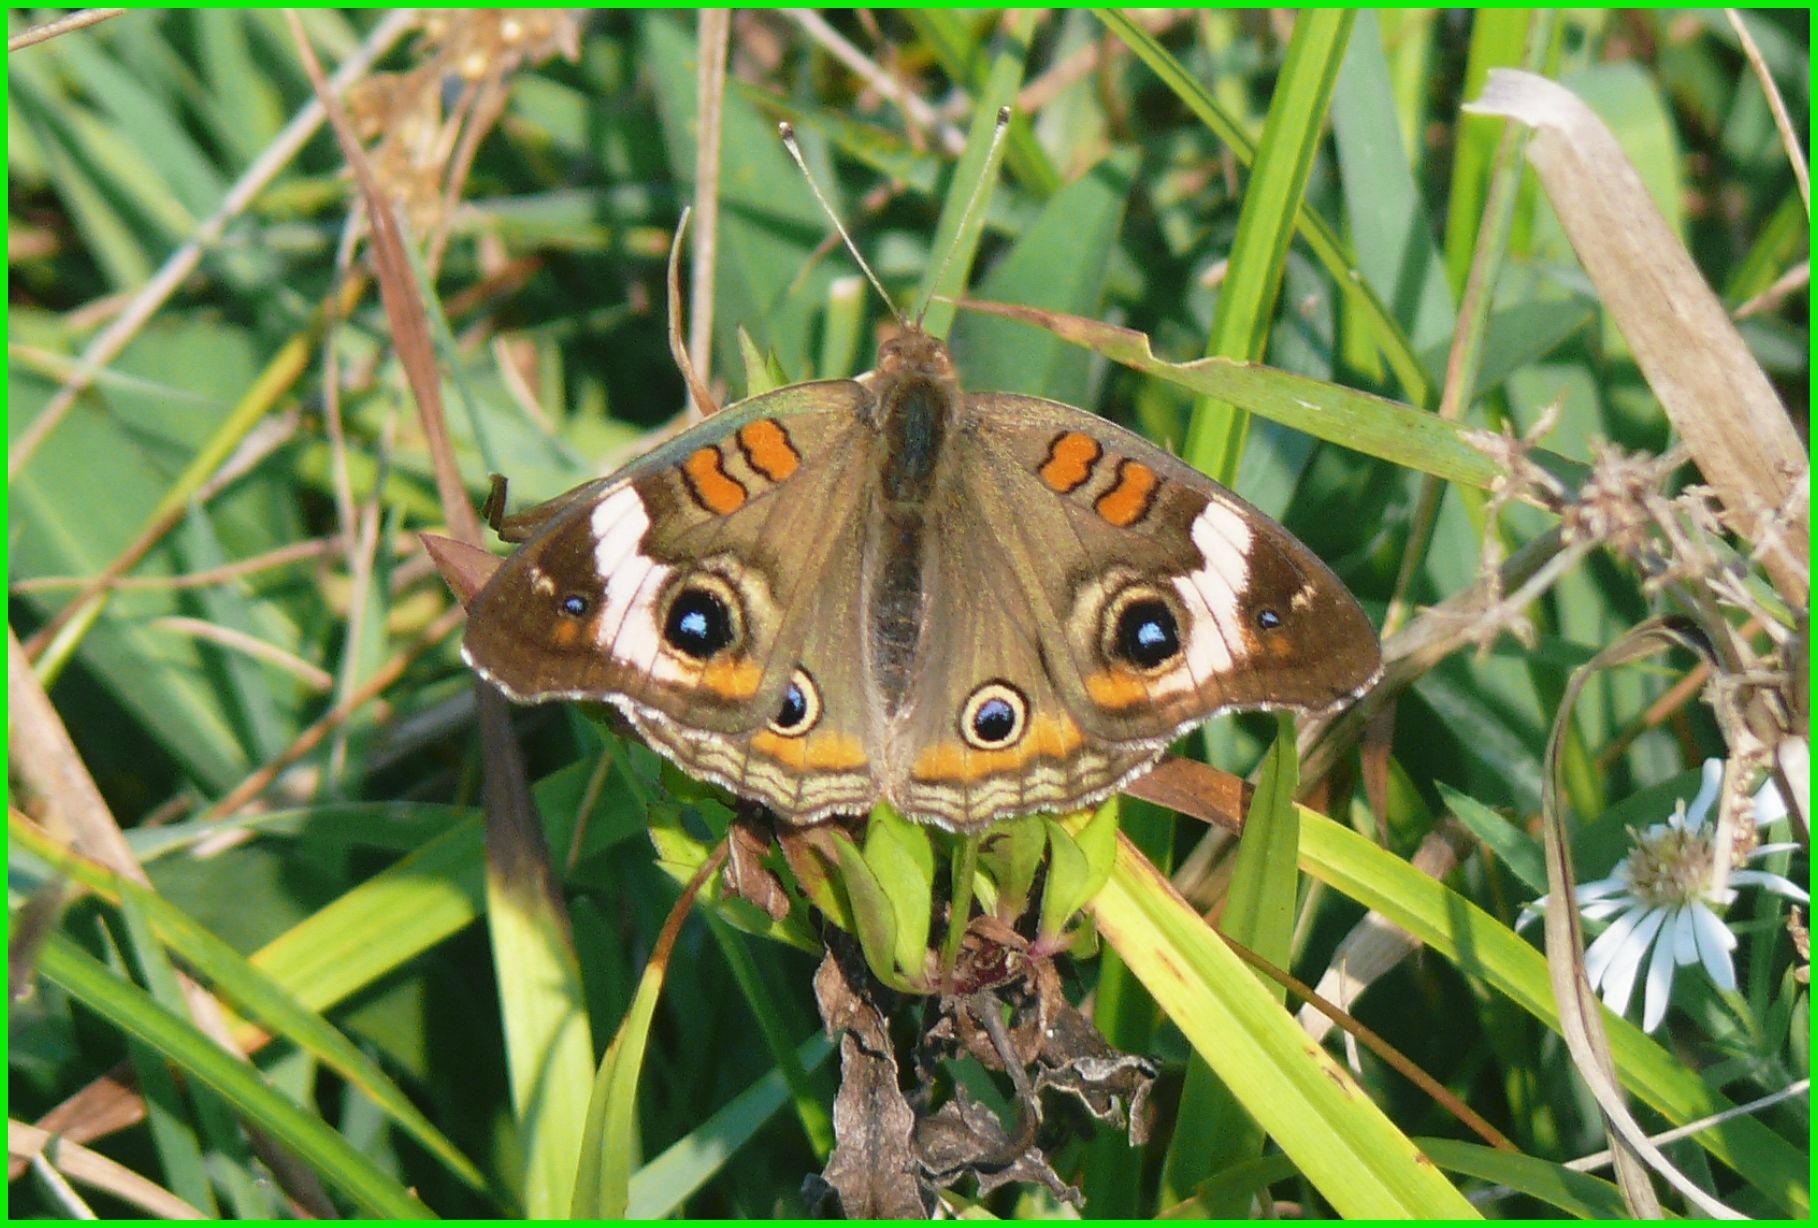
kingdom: Animalia
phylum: Arthropoda
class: Insecta
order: Lepidoptera
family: Nymphalidae
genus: Junonia
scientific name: Junonia coenia
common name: Common buckeye
